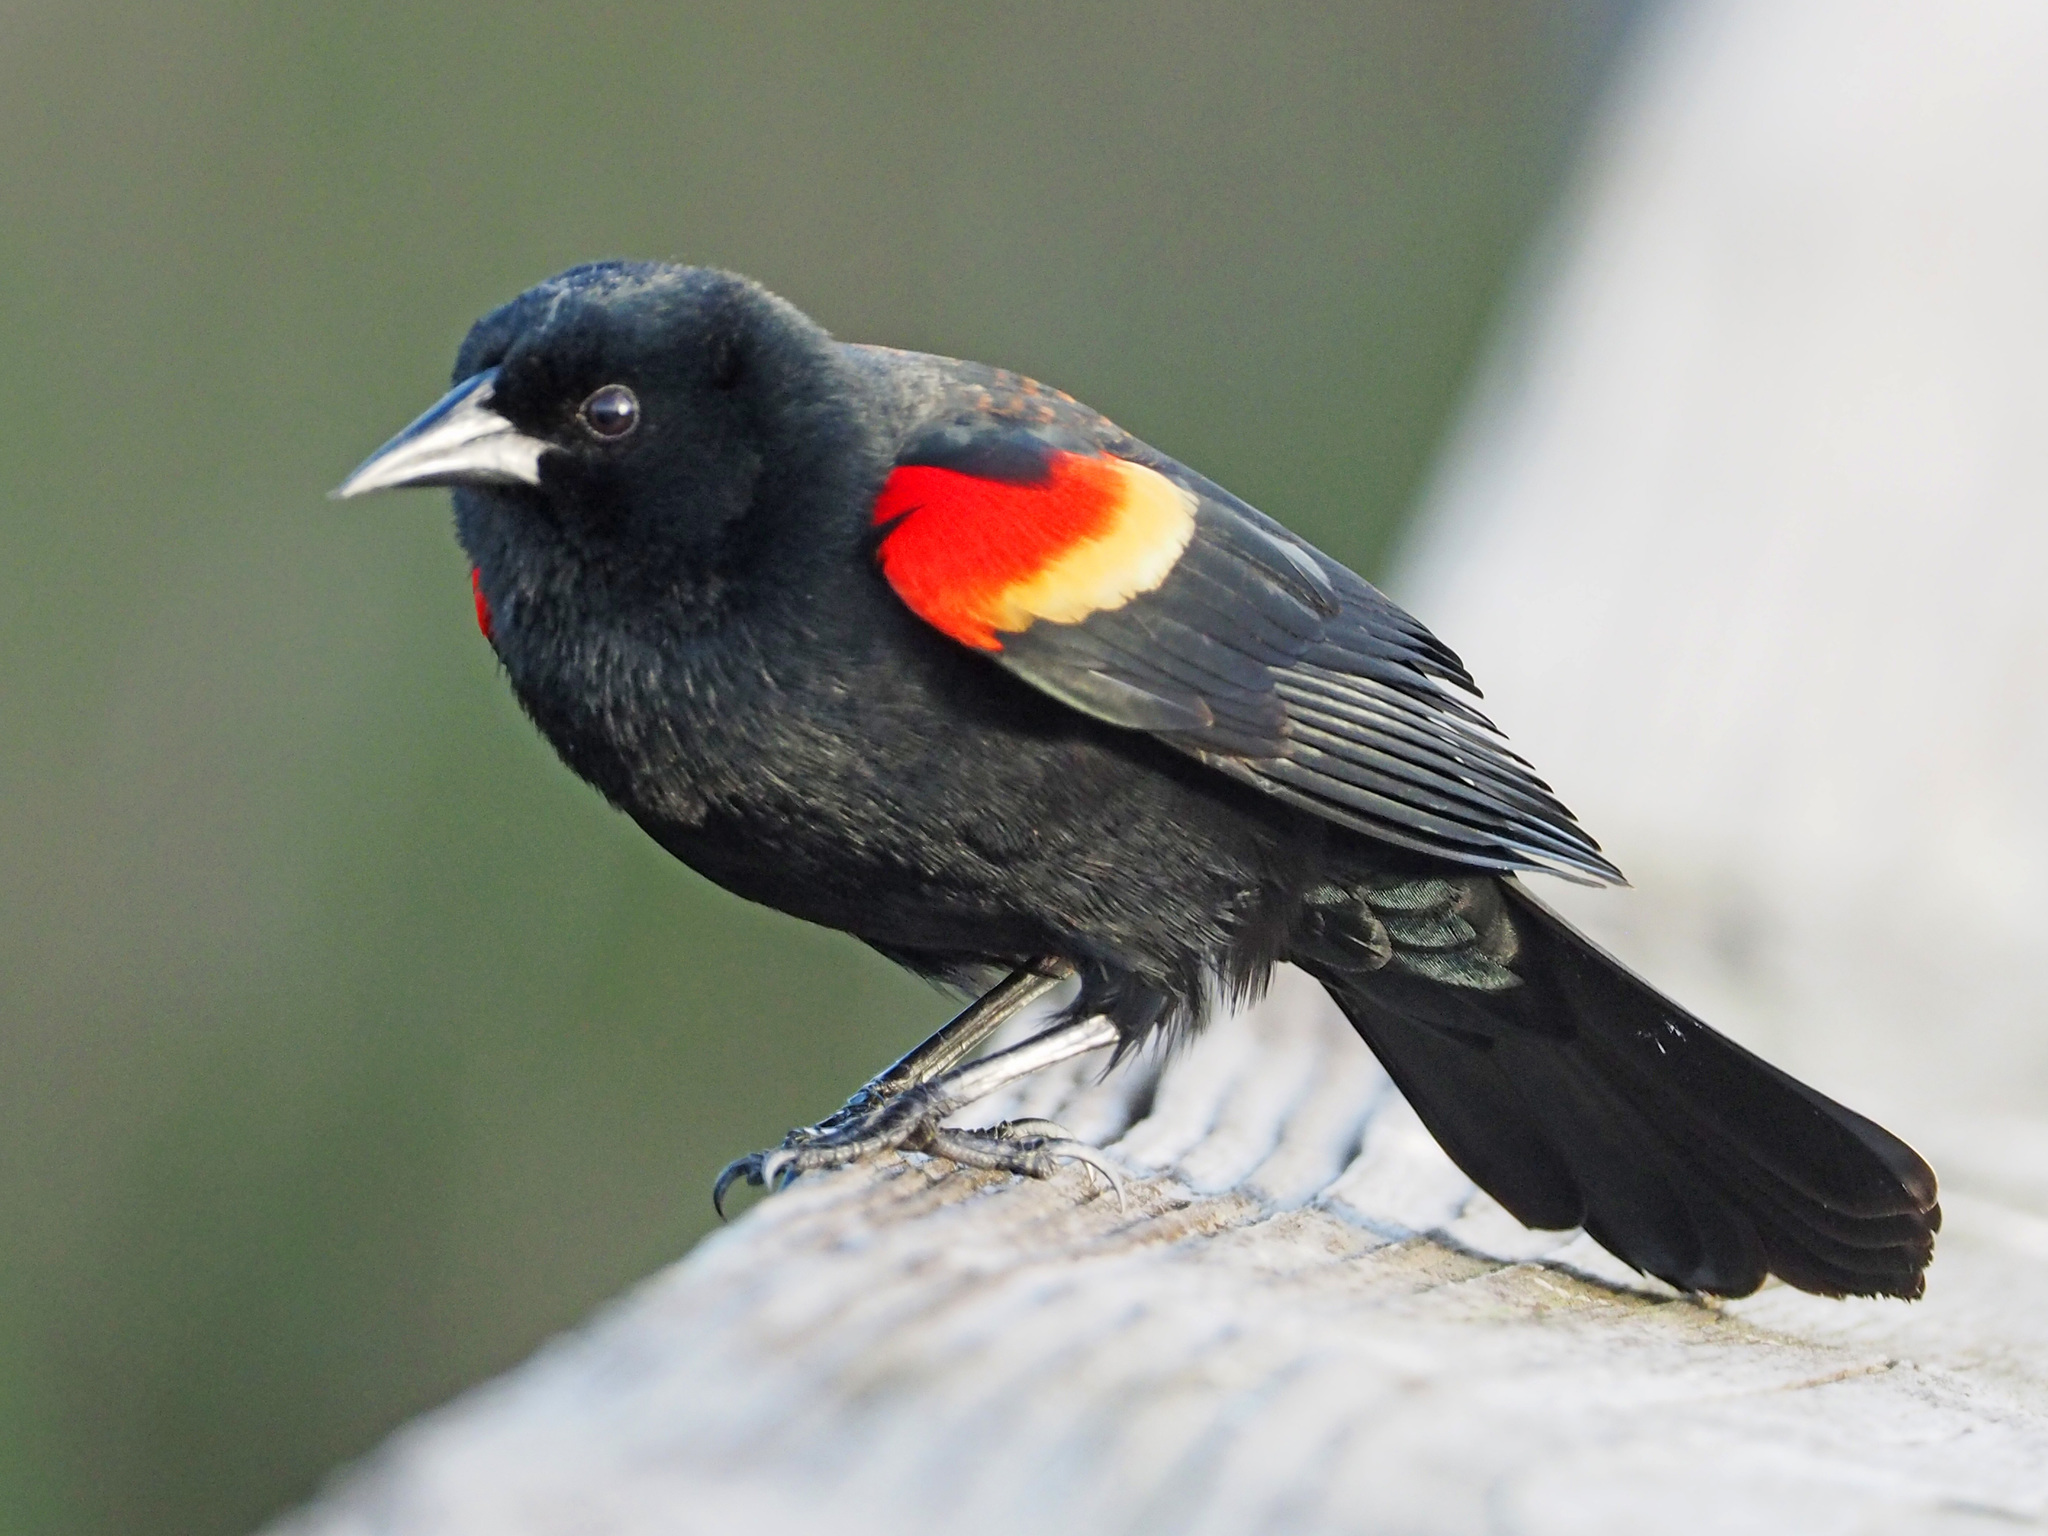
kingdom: Animalia
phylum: Chordata
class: Aves
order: Passeriformes
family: Icteridae
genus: Agelaius
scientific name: Agelaius phoeniceus
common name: Red-winged blackbird
